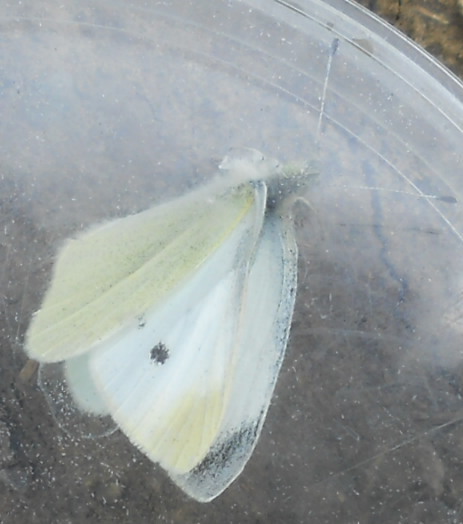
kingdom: Animalia
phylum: Arthropoda
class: Insecta
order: Lepidoptera
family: Pieridae
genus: Pieris
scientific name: Pieris rapae
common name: Small white
